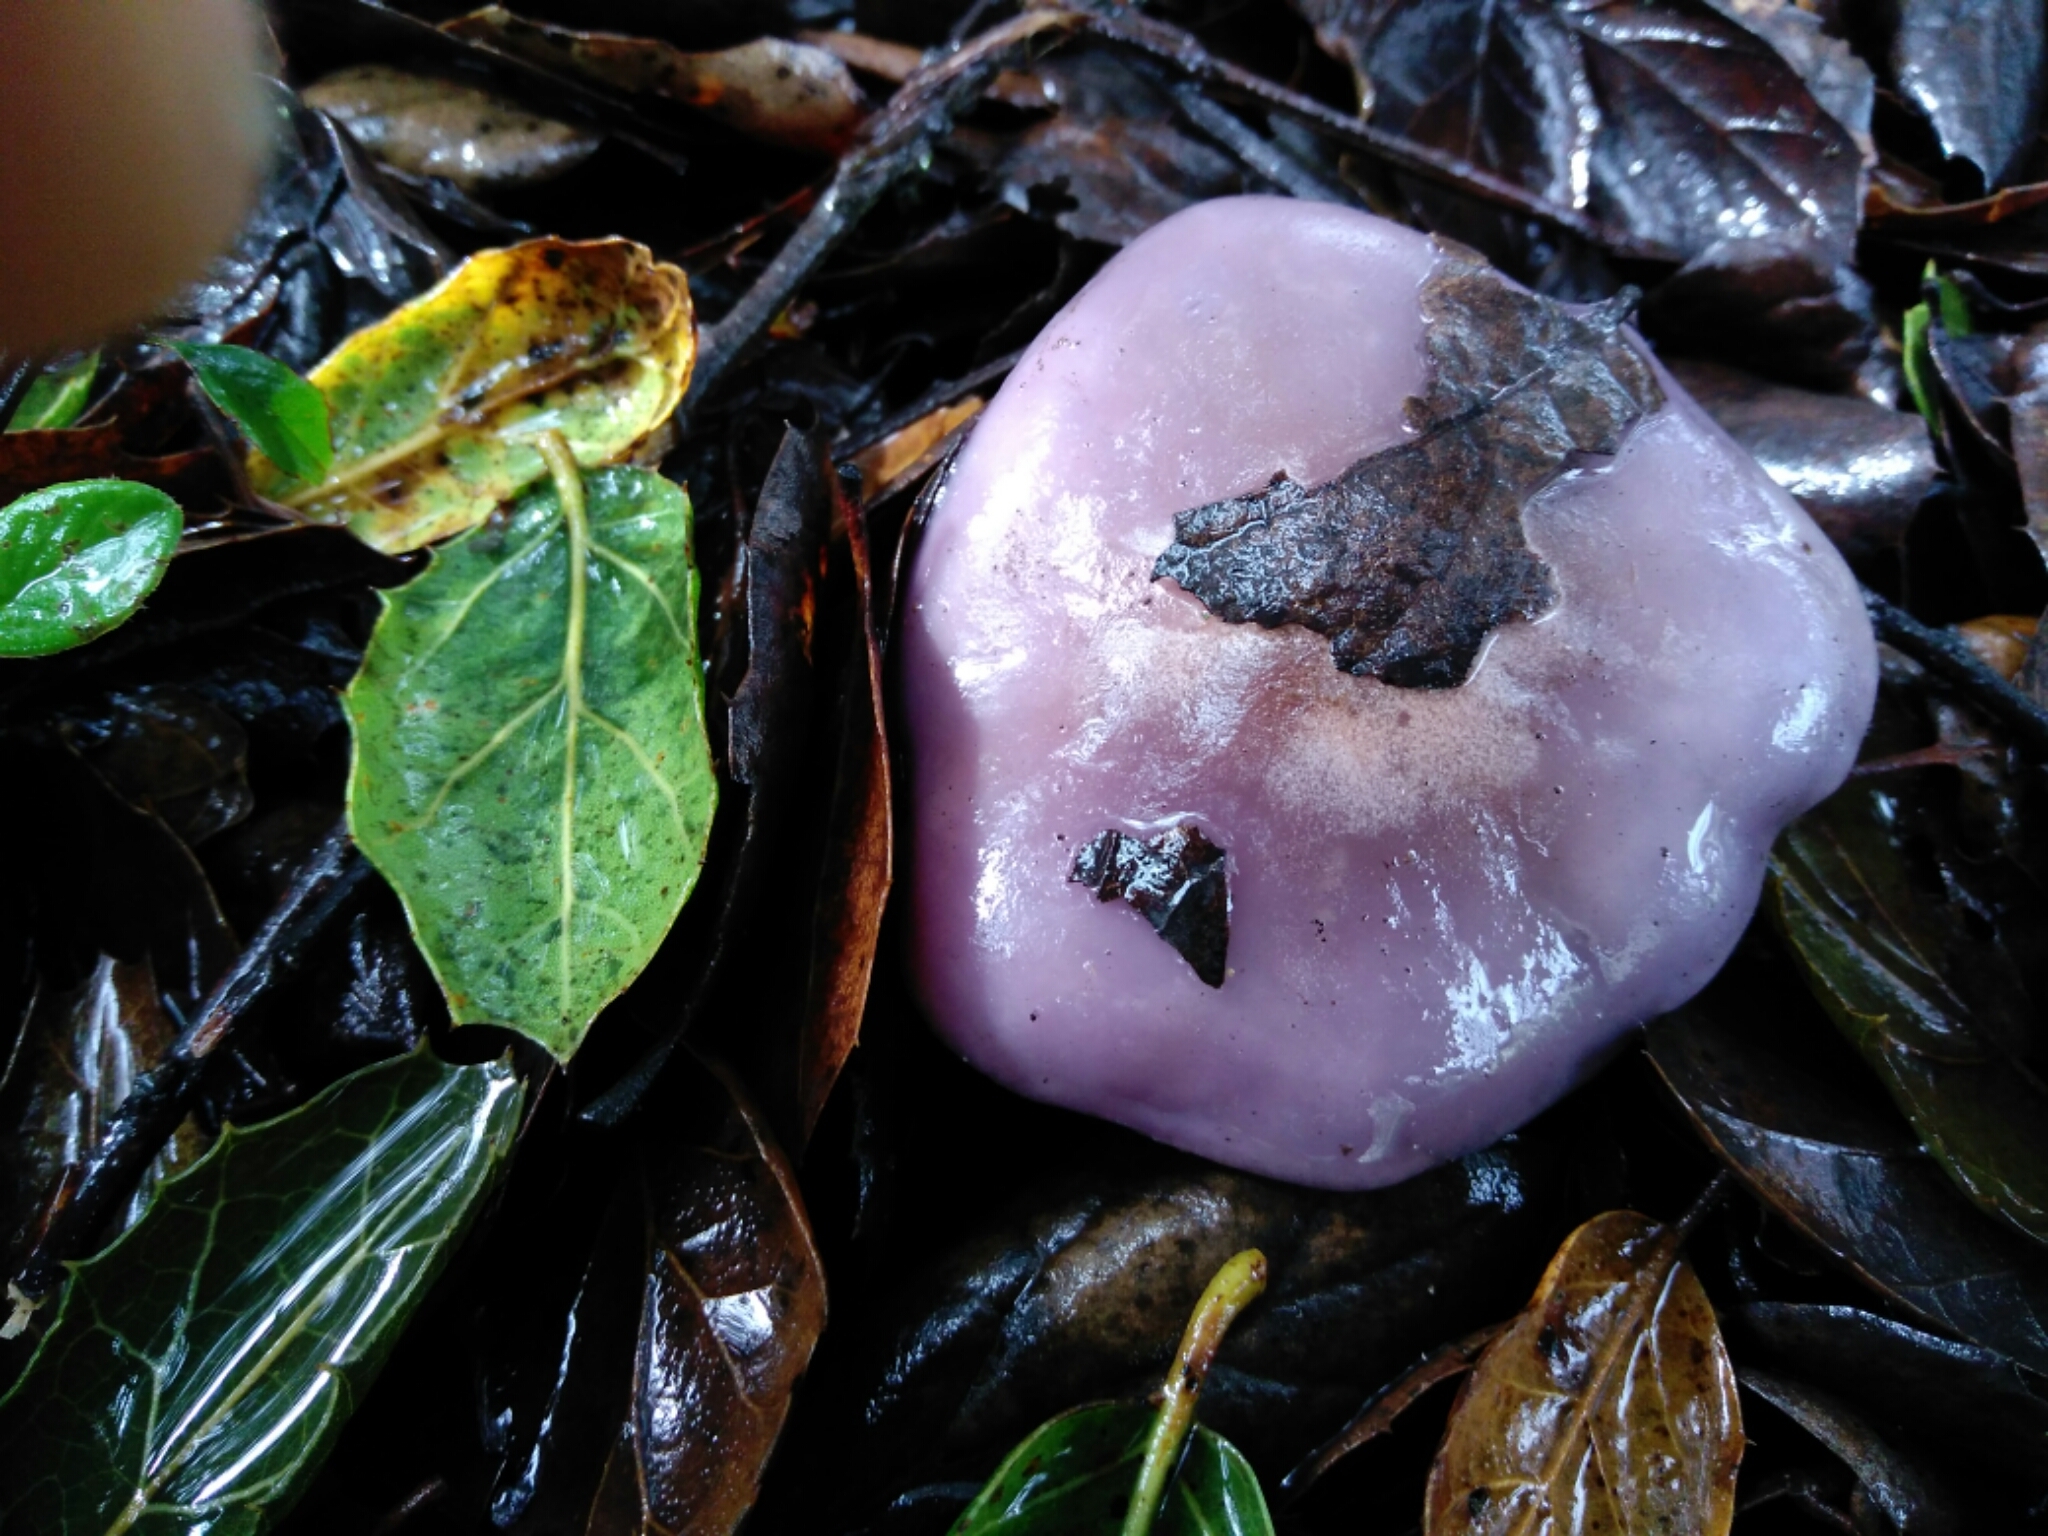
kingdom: Fungi
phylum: Basidiomycota
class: Agaricomycetes
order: Agaricales
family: Tricholomataceae
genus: Collybia
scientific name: Collybia
